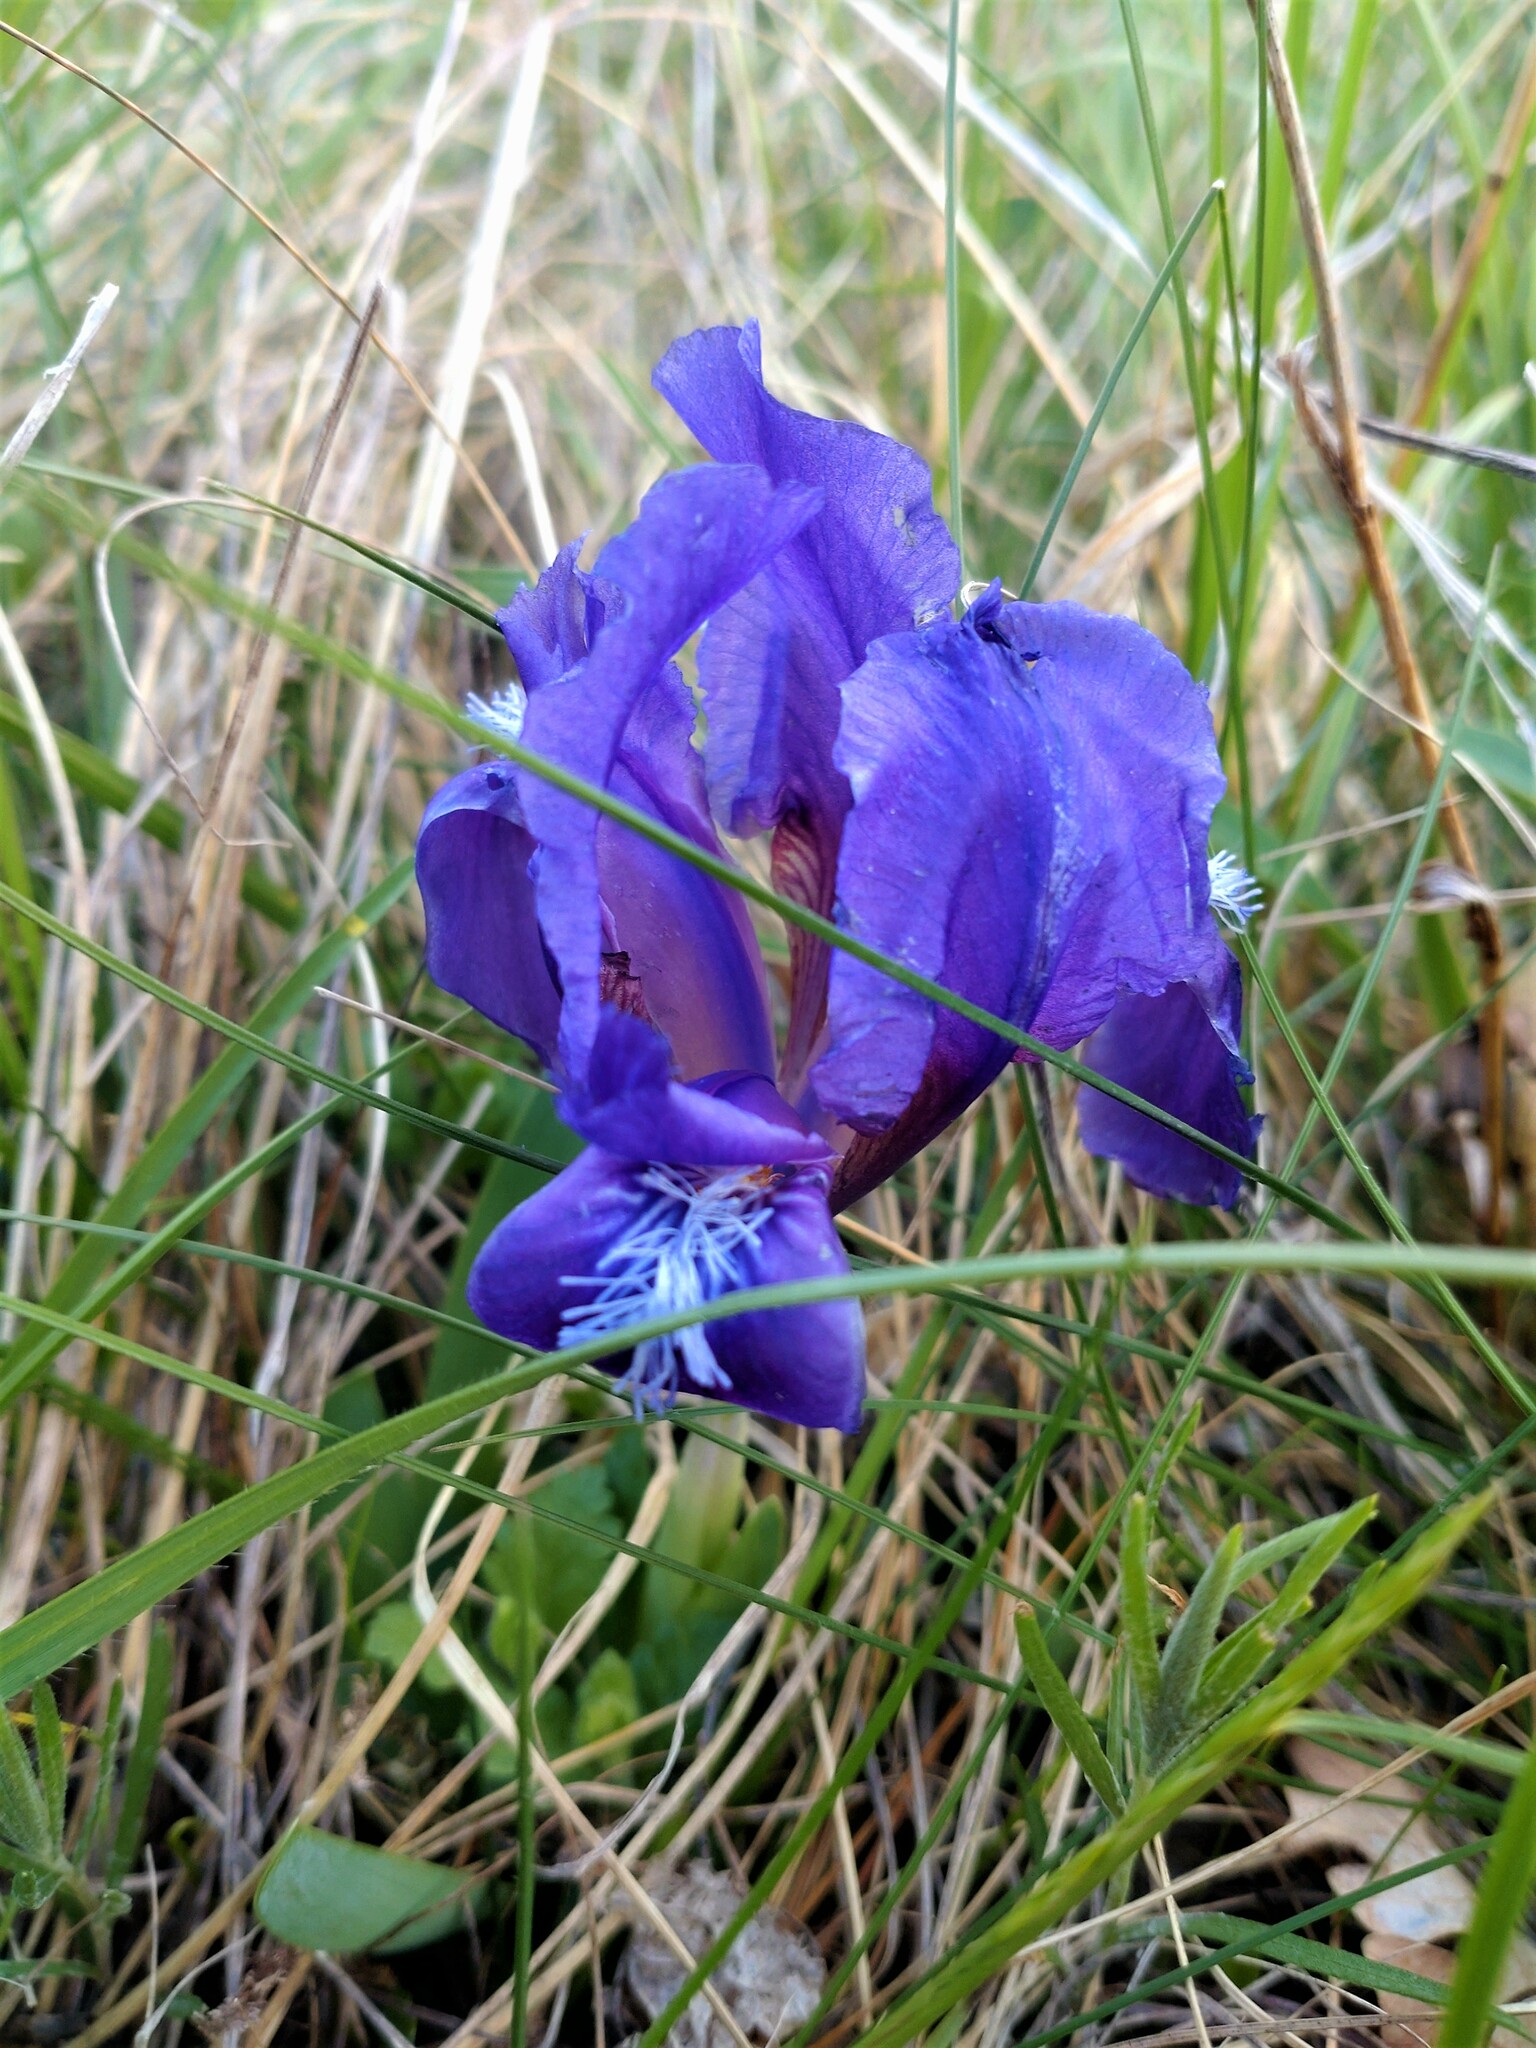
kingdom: Plantae
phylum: Tracheophyta
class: Liliopsida
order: Asparagales
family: Iridaceae
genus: Iris
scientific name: Iris pumila
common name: Dwarf iris
